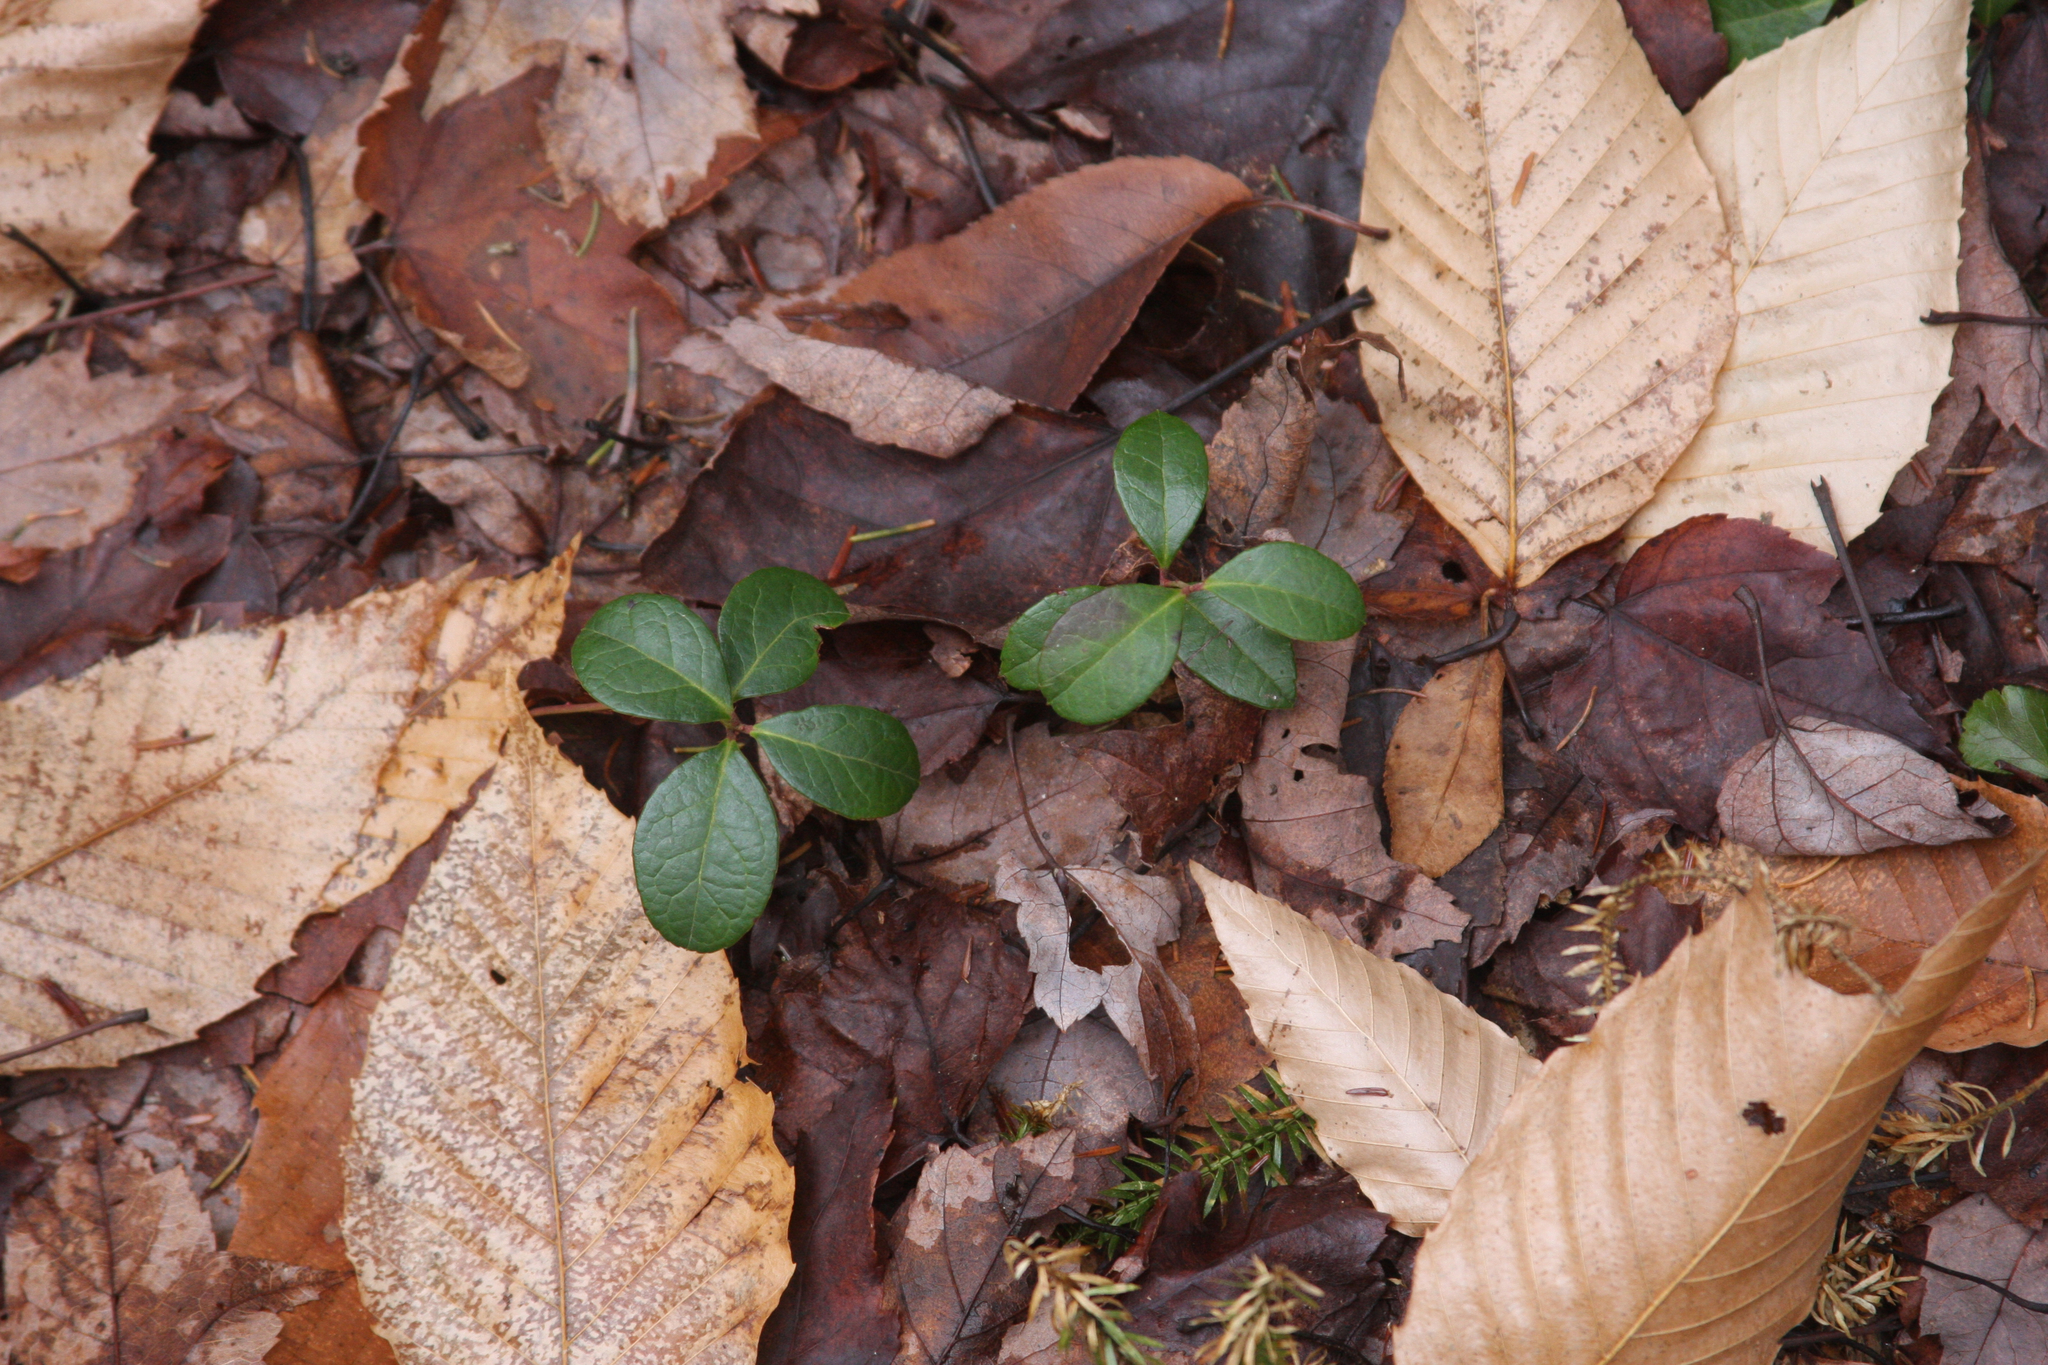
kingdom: Plantae
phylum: Tracheophyta
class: Magnoliopsida
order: Ericales
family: Ericaceae
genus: Gaultheria
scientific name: Gaultheria procumbens
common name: Checkerberry
